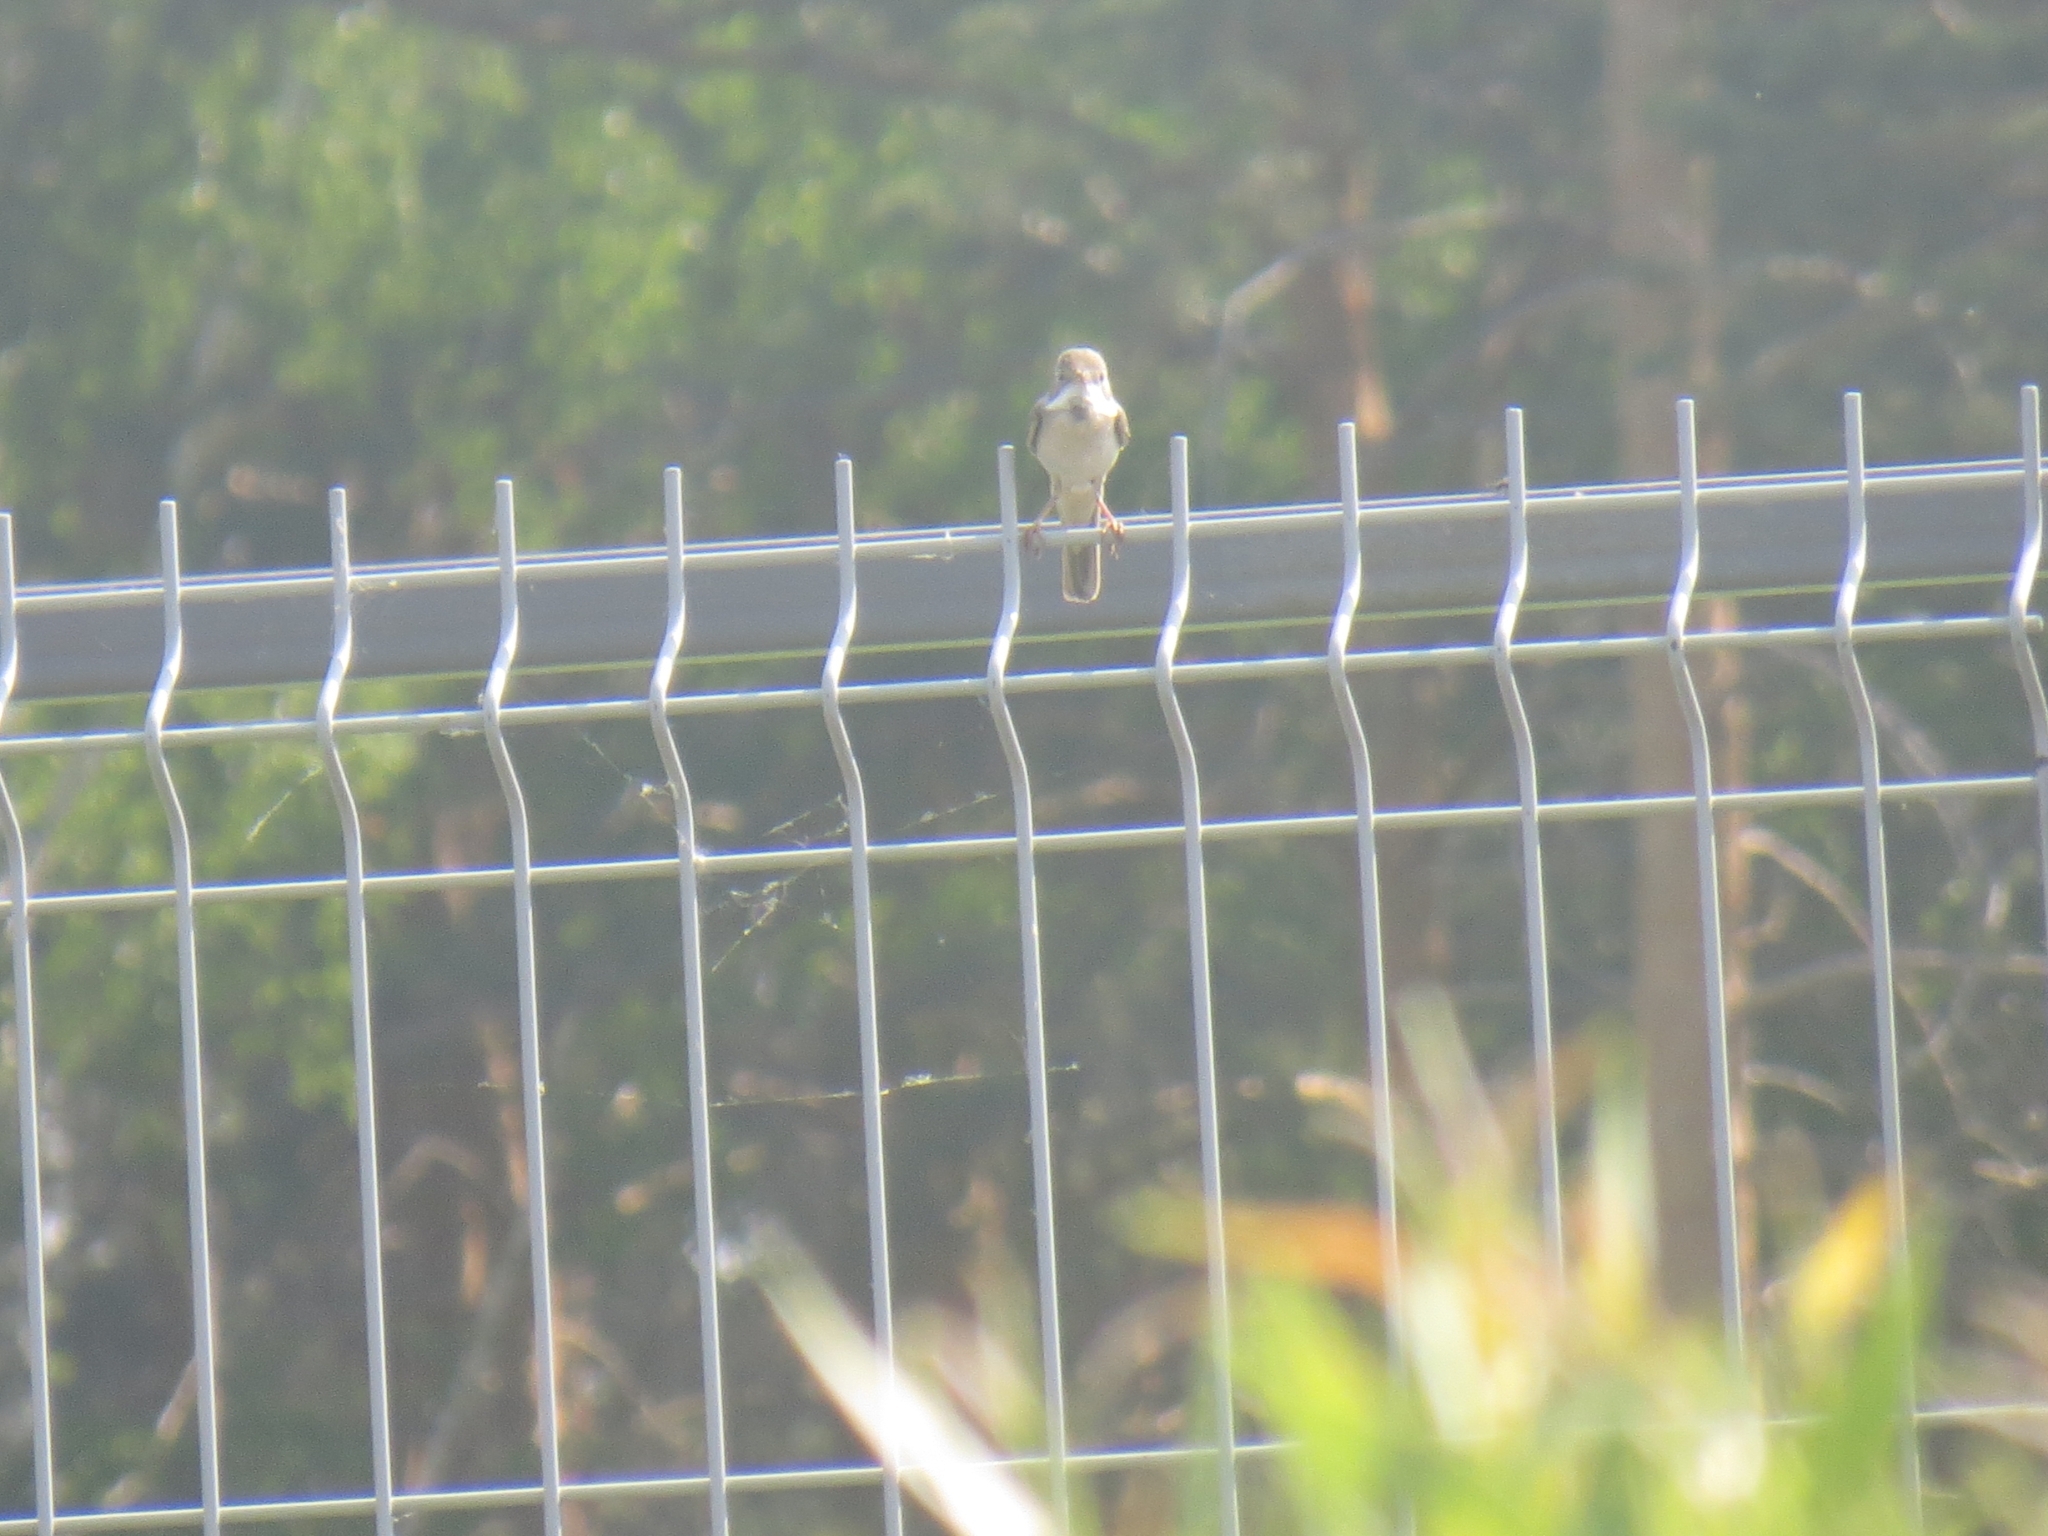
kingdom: Animalia
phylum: Chordata
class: Aves
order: Passeriformes
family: Sylviidae
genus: Sylvia
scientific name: Sylvia communis
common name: Common whitethroat
